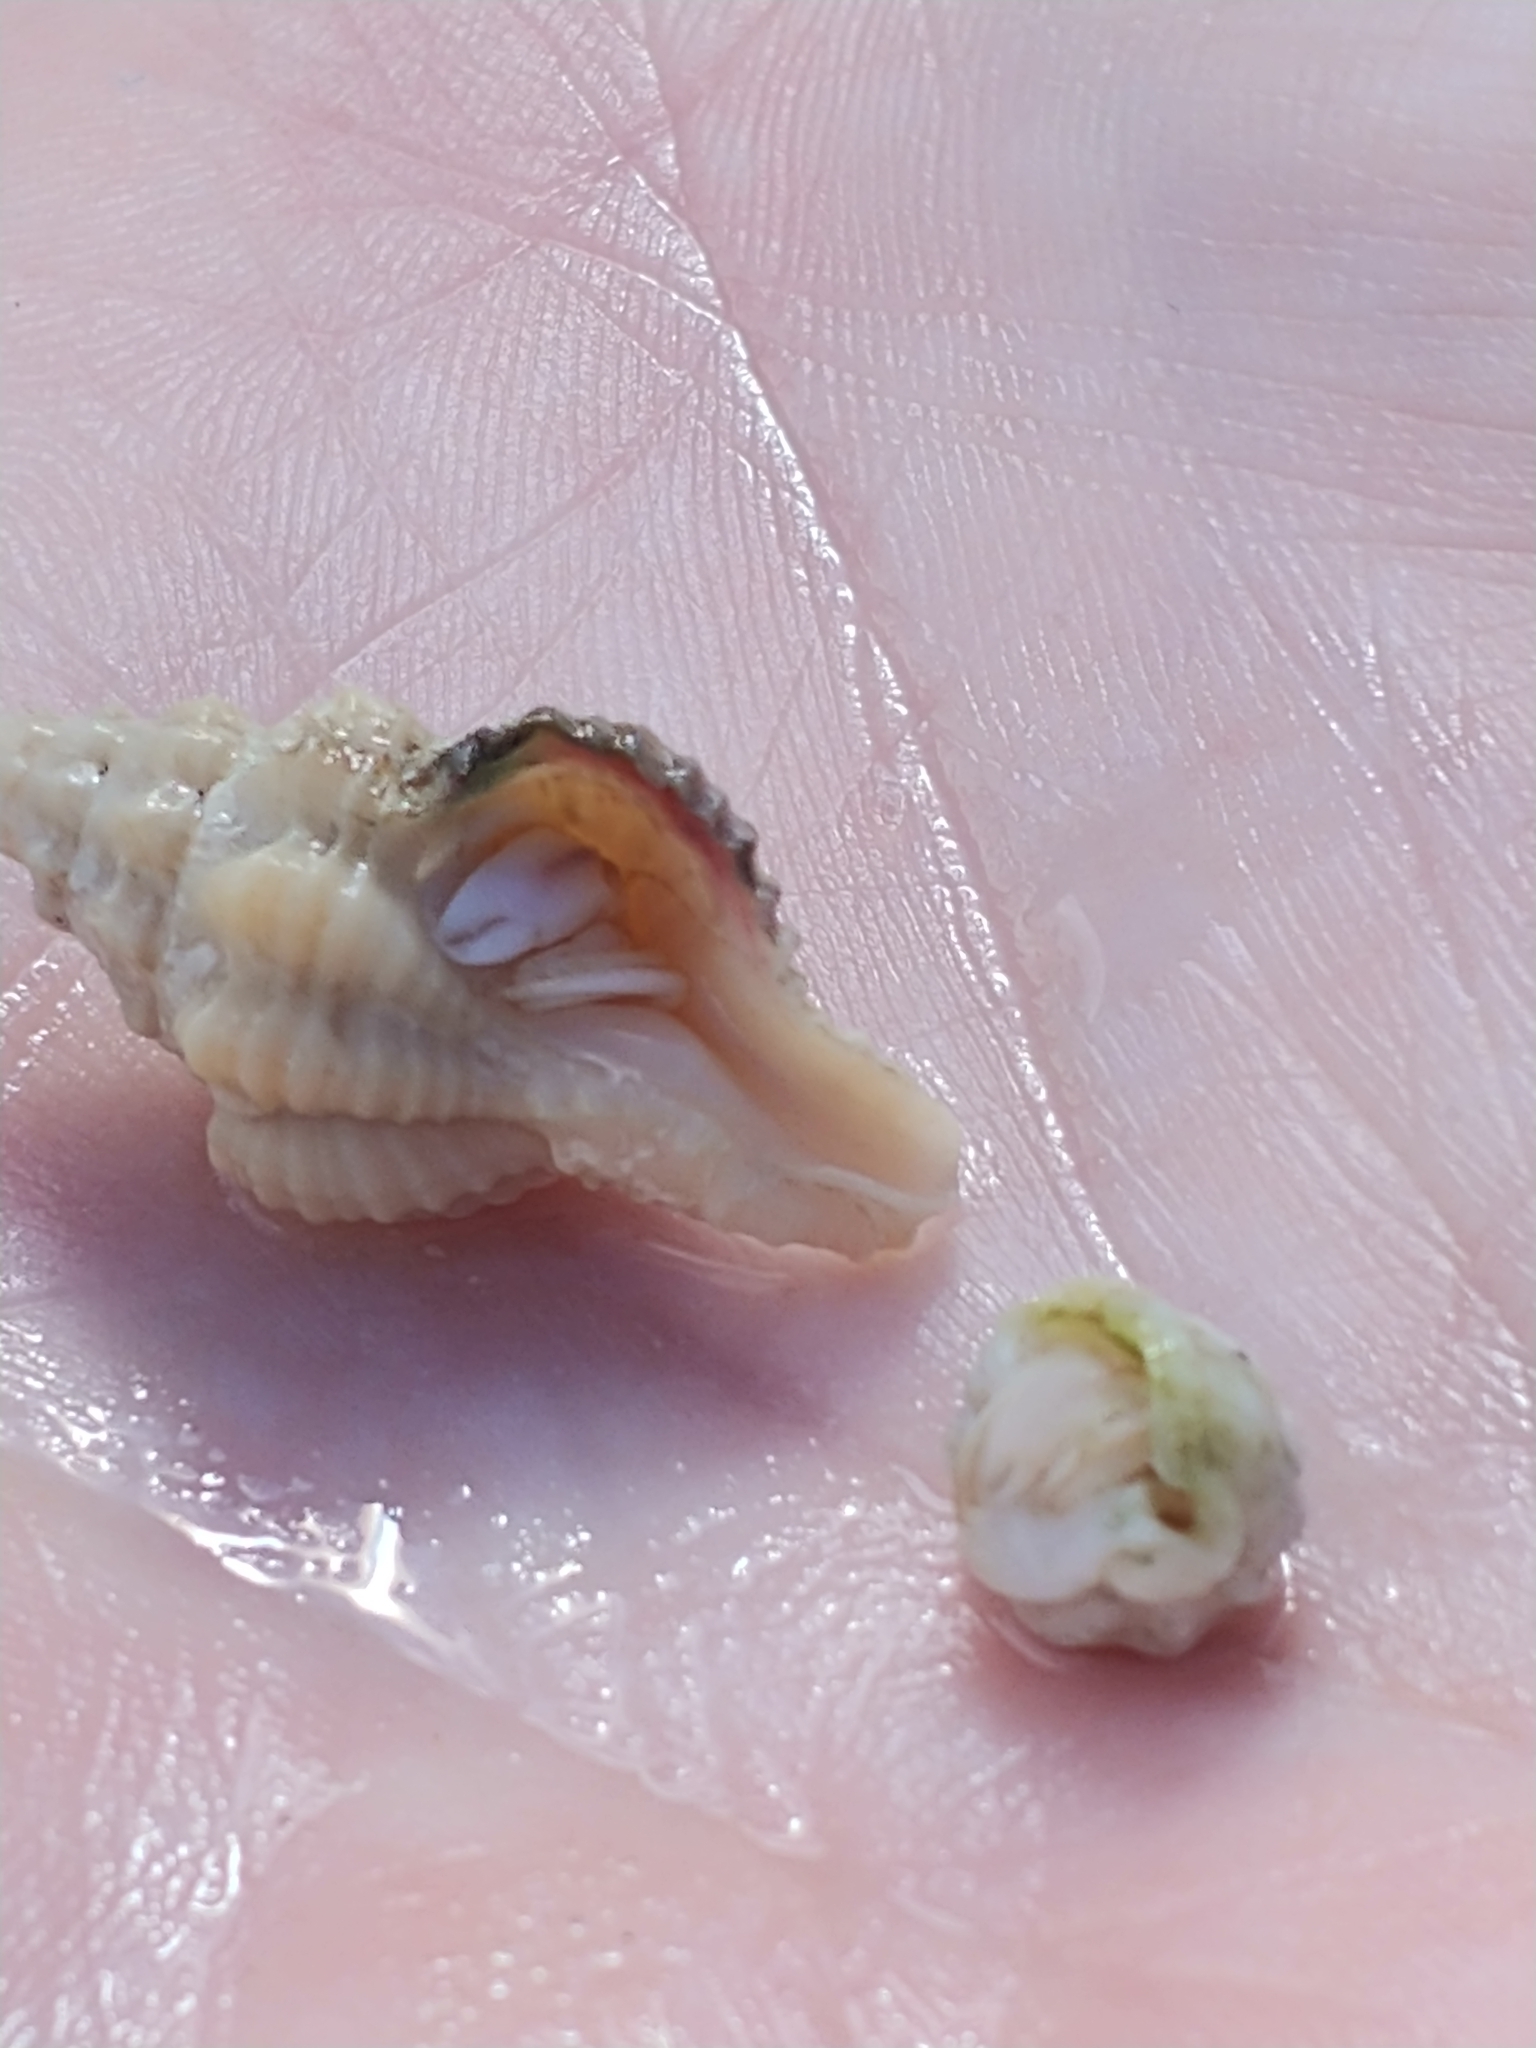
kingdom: Animalia
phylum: Arthropoda
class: Malacostraca
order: Decapoda
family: Paguridae
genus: Pagurus
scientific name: Pagurus longicarpus
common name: Long-armed hermit crab
